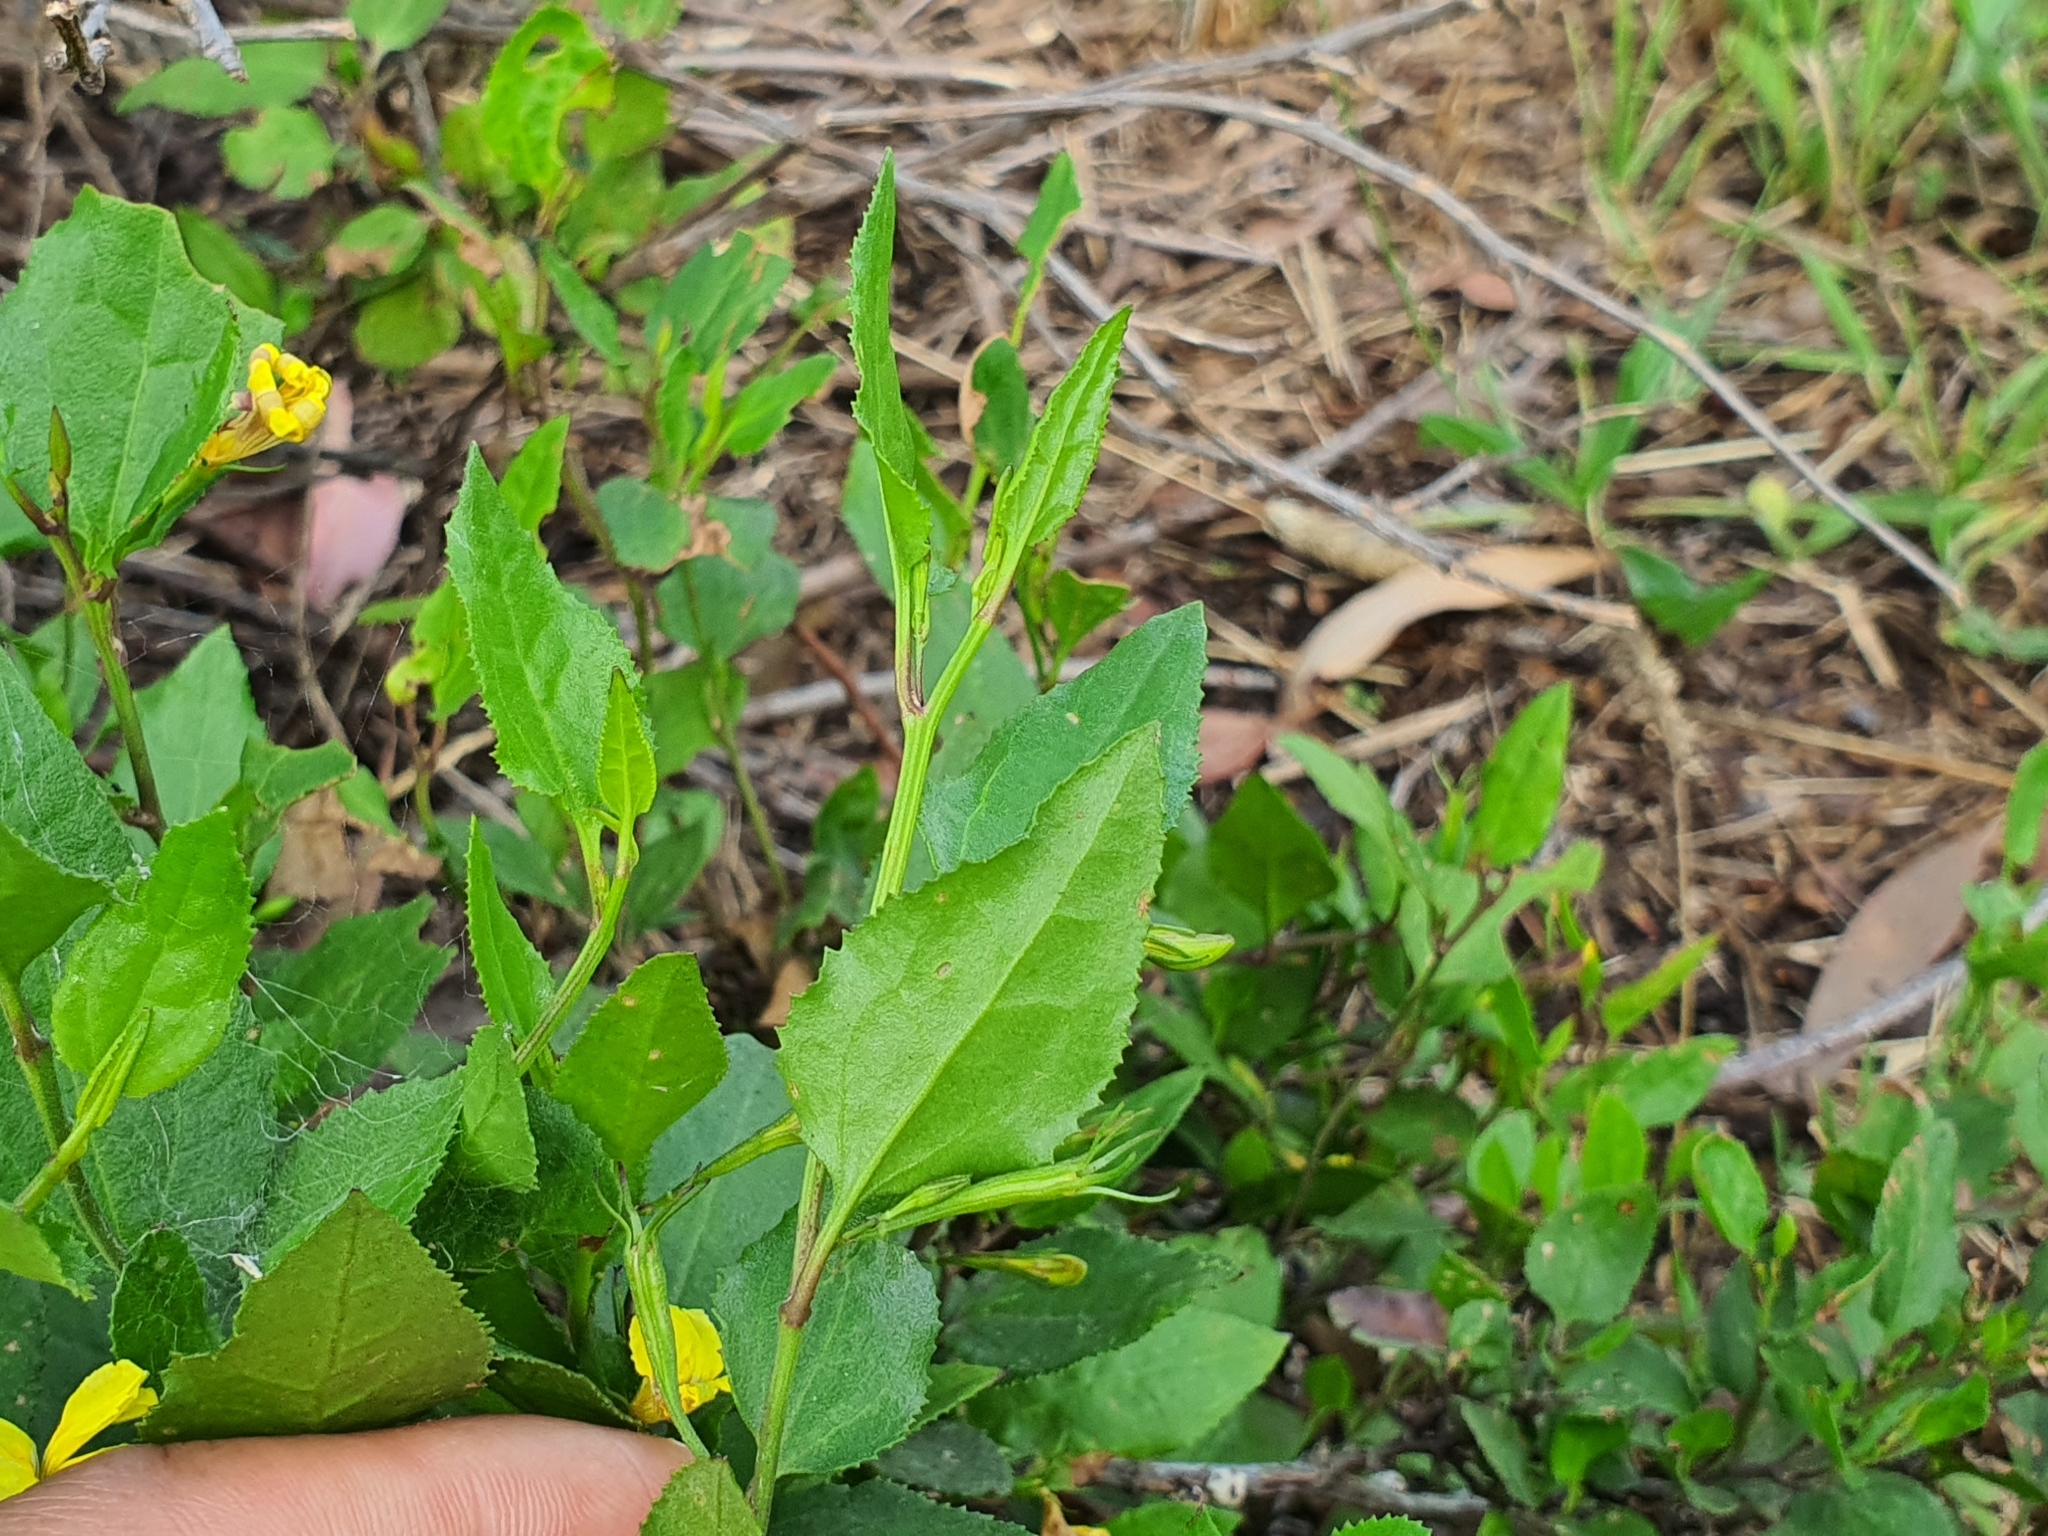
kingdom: Plantae
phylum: Tracheophyta
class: Magnoliopsida
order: Asterales
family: Goodeniaceae
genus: Goodenia
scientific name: Goodenia ovata
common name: Hop goodenia
